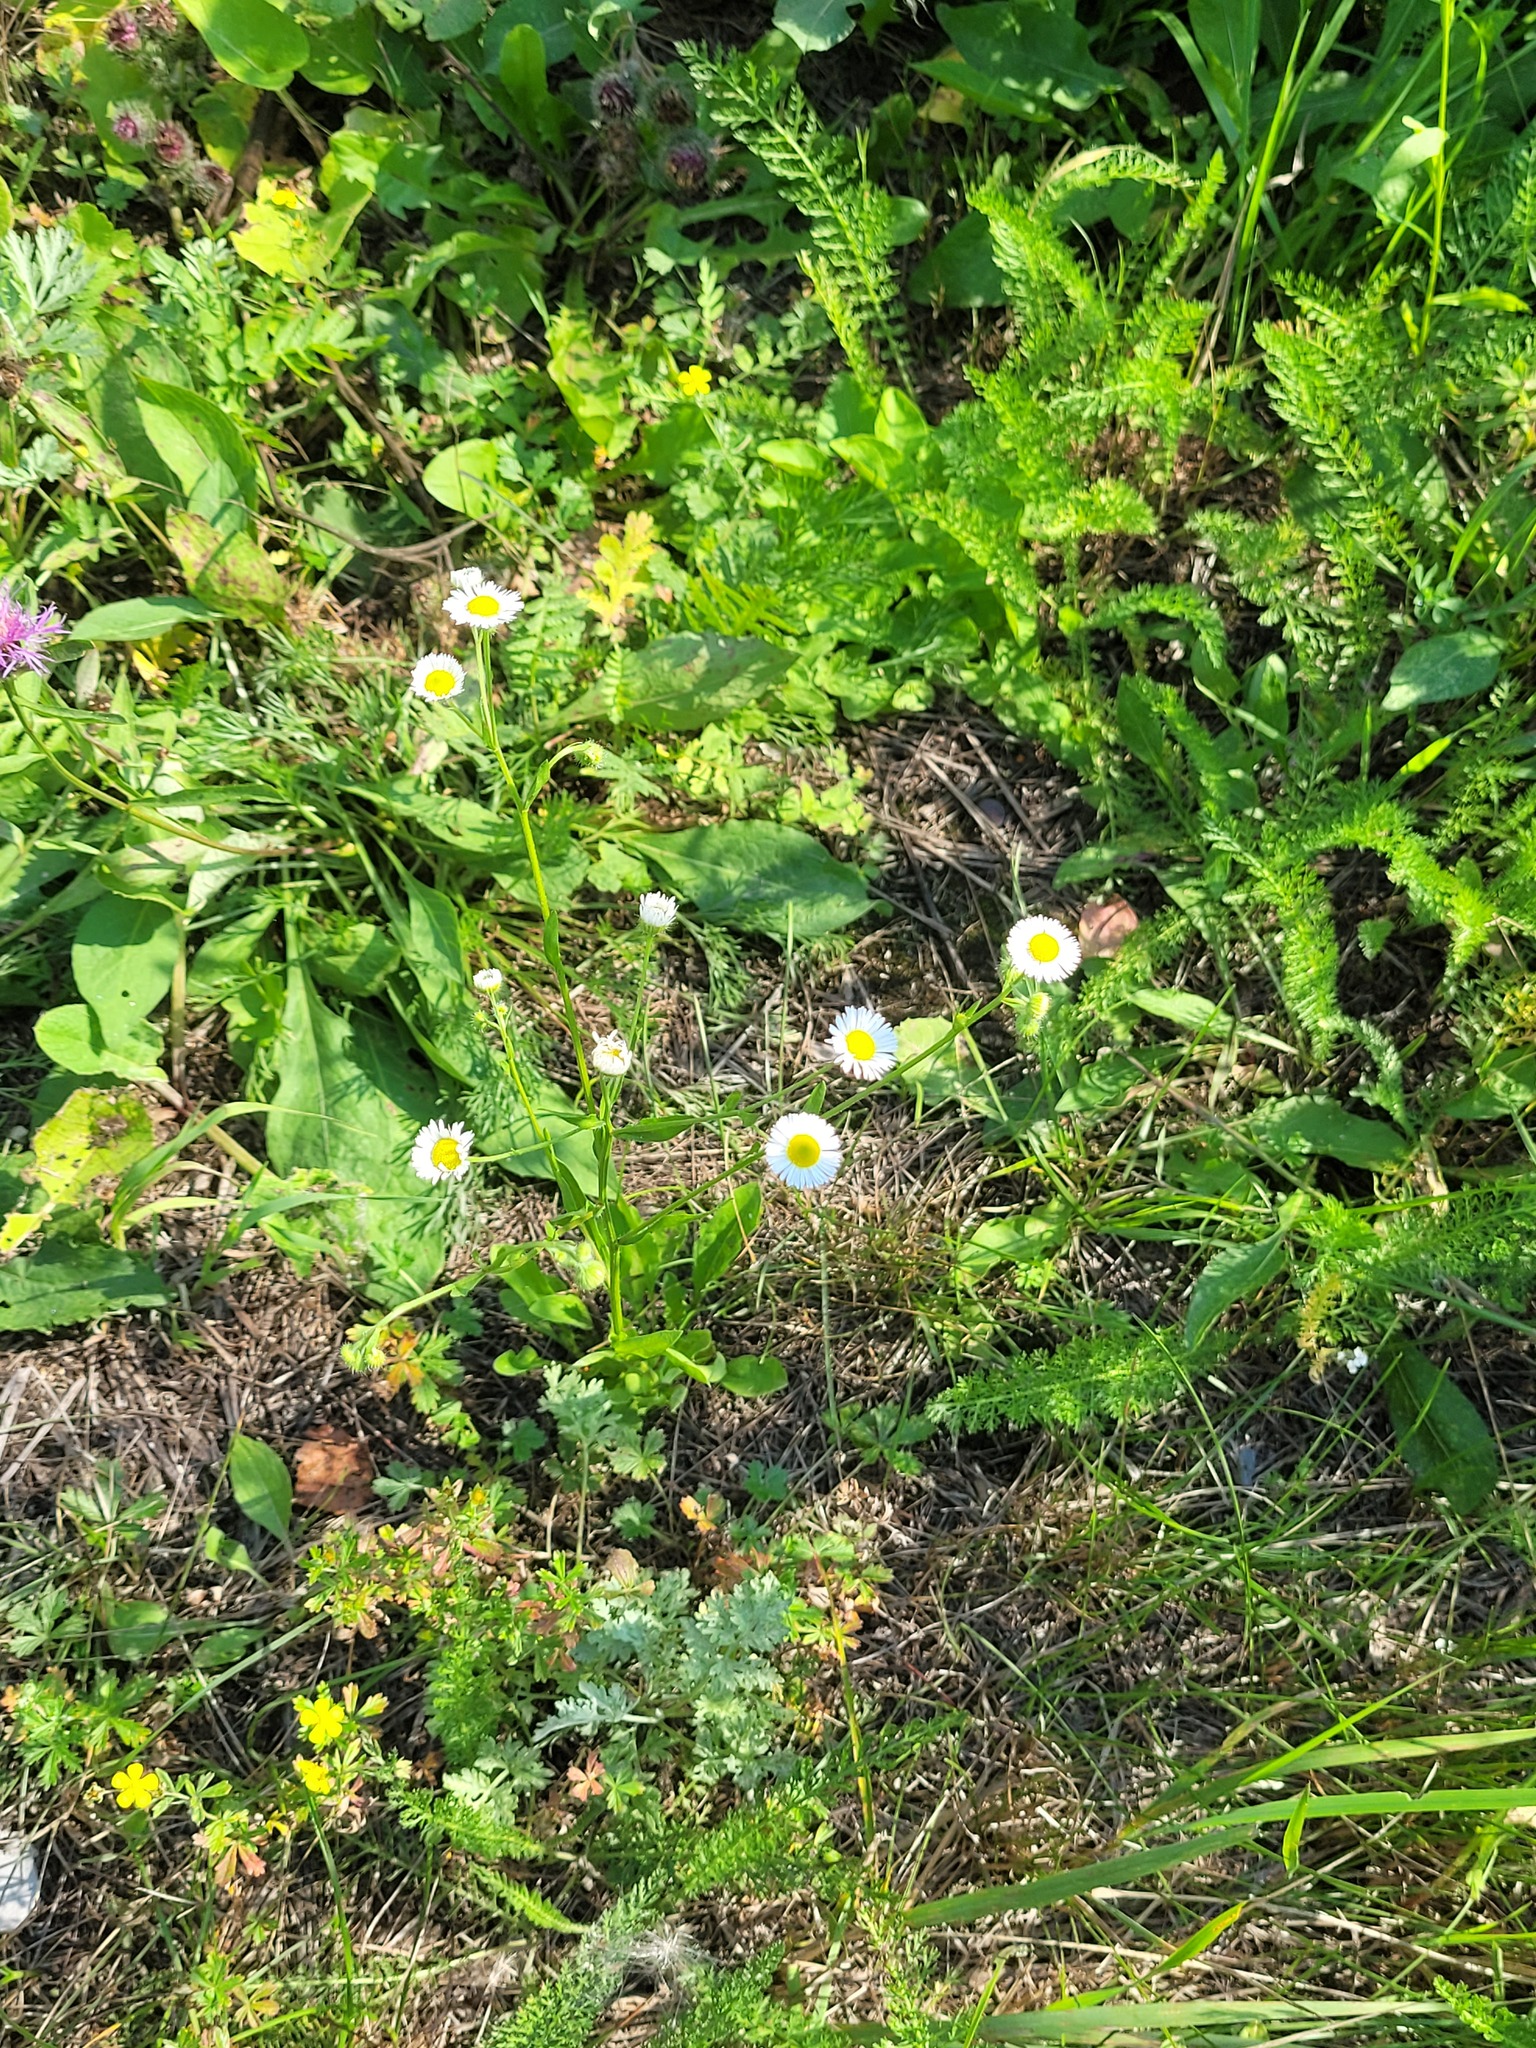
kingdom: Plantae
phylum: Tracheophyta
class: Magnoliopsida
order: Asterales
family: Asteraceae
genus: Erigeron
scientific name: Erigeron annuus
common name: Tall fleabane
